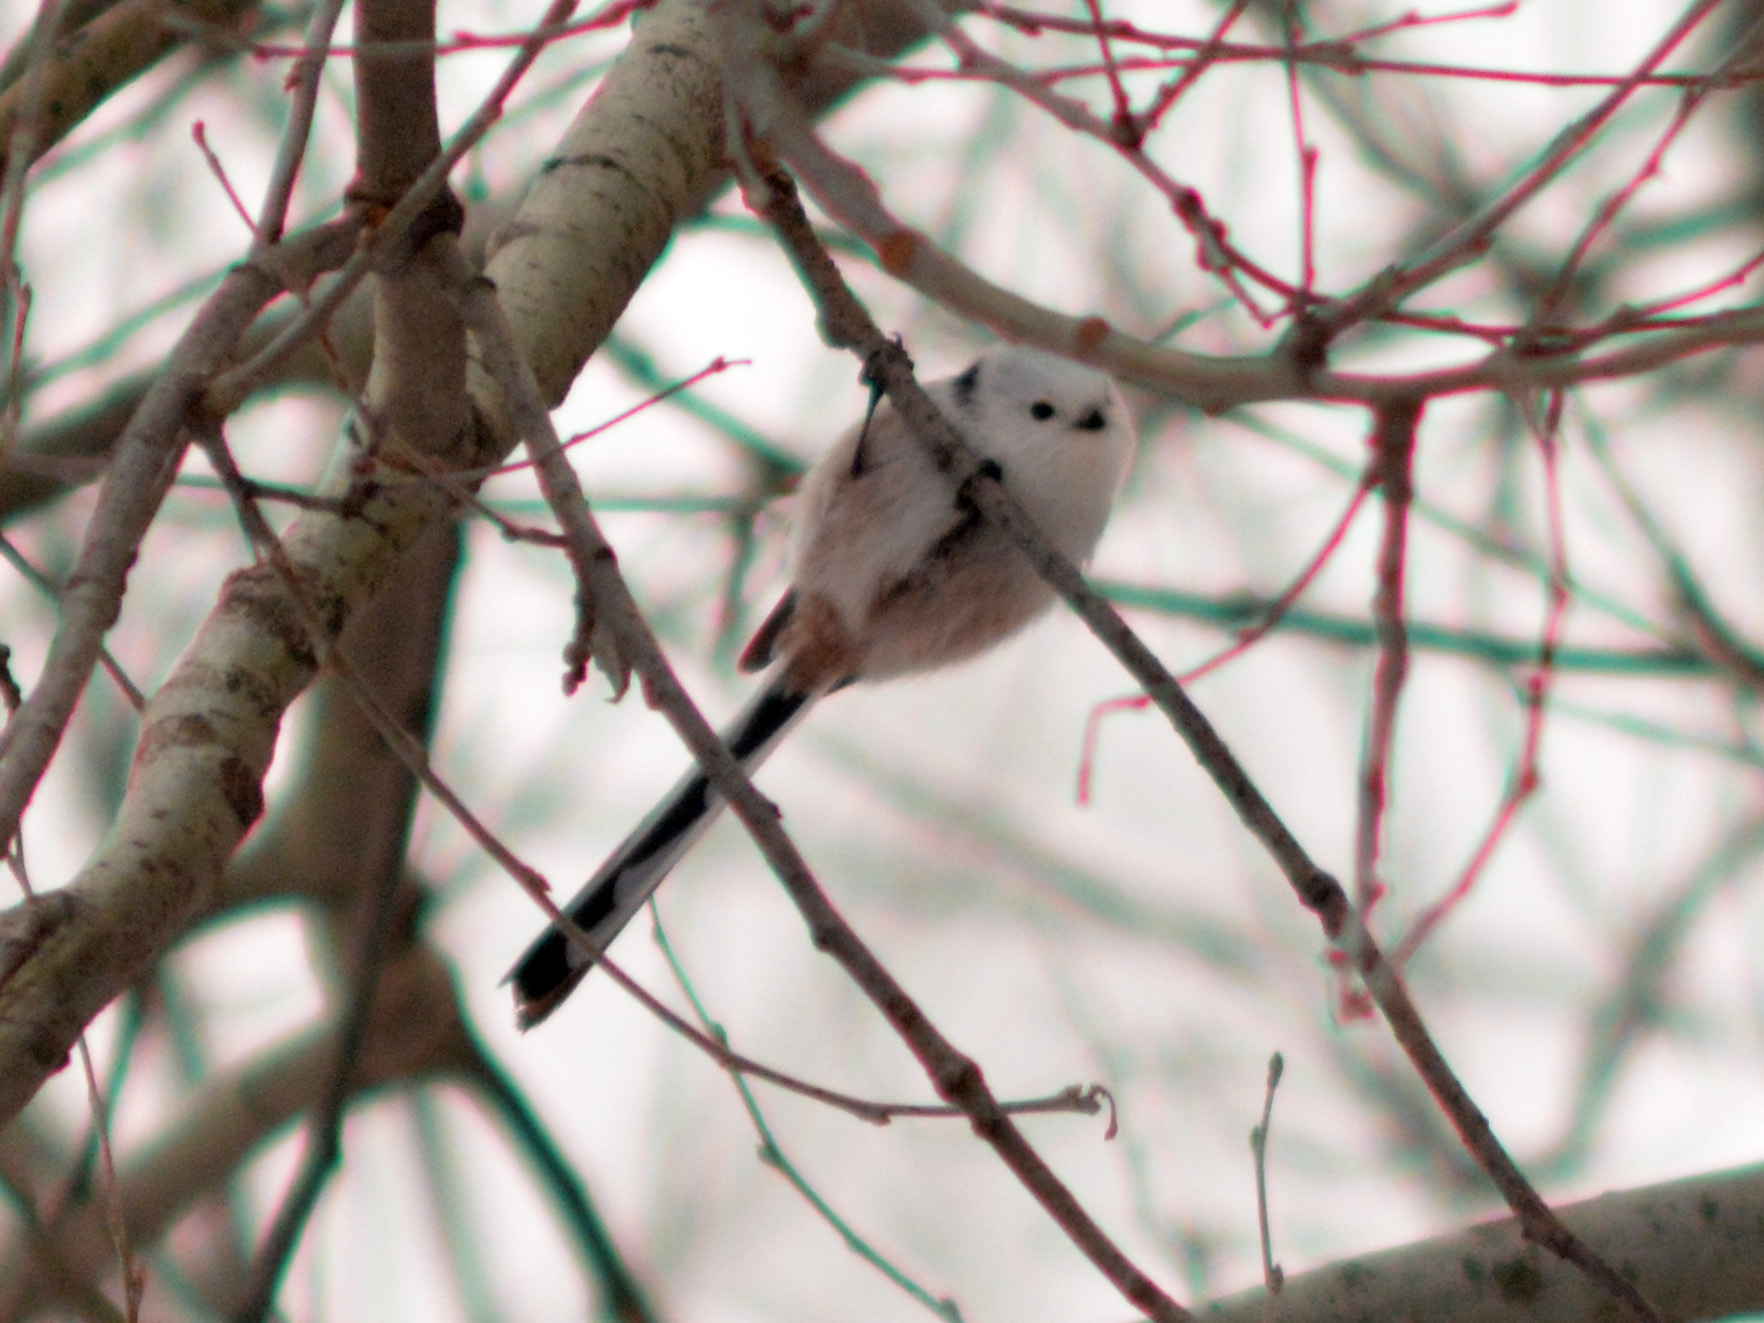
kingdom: Animalia
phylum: Chordata
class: Aves
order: Passeriformes
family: Aegithalidae
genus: Aegithalos
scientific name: Aegithalos caudatus
